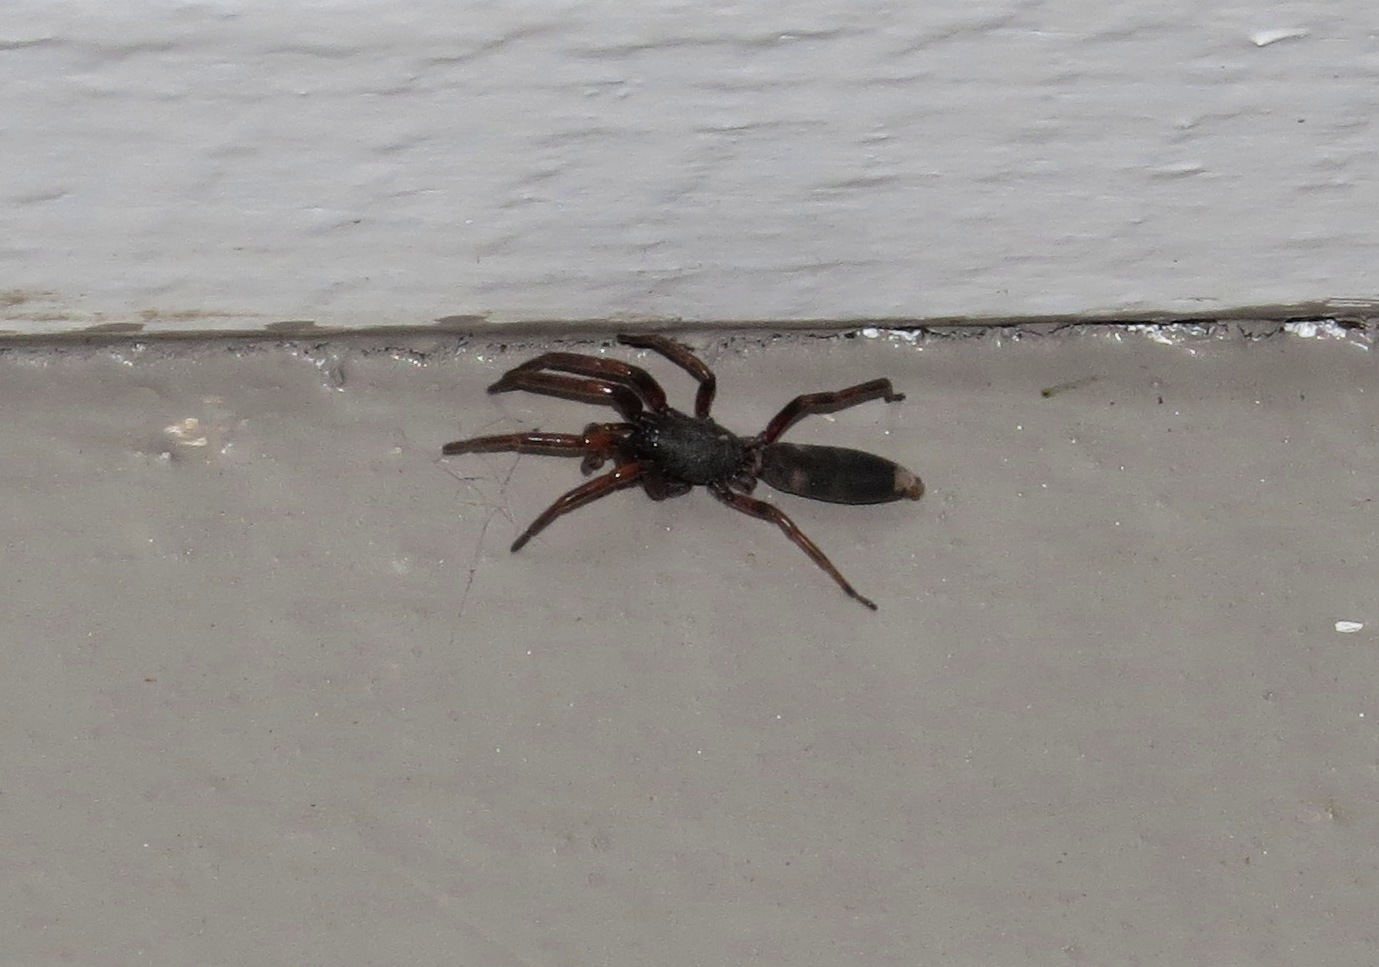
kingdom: Animalia
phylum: Arthropoda
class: Arachnida
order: Araneae
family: Lamponidae
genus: Lampona
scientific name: Lampona murina
